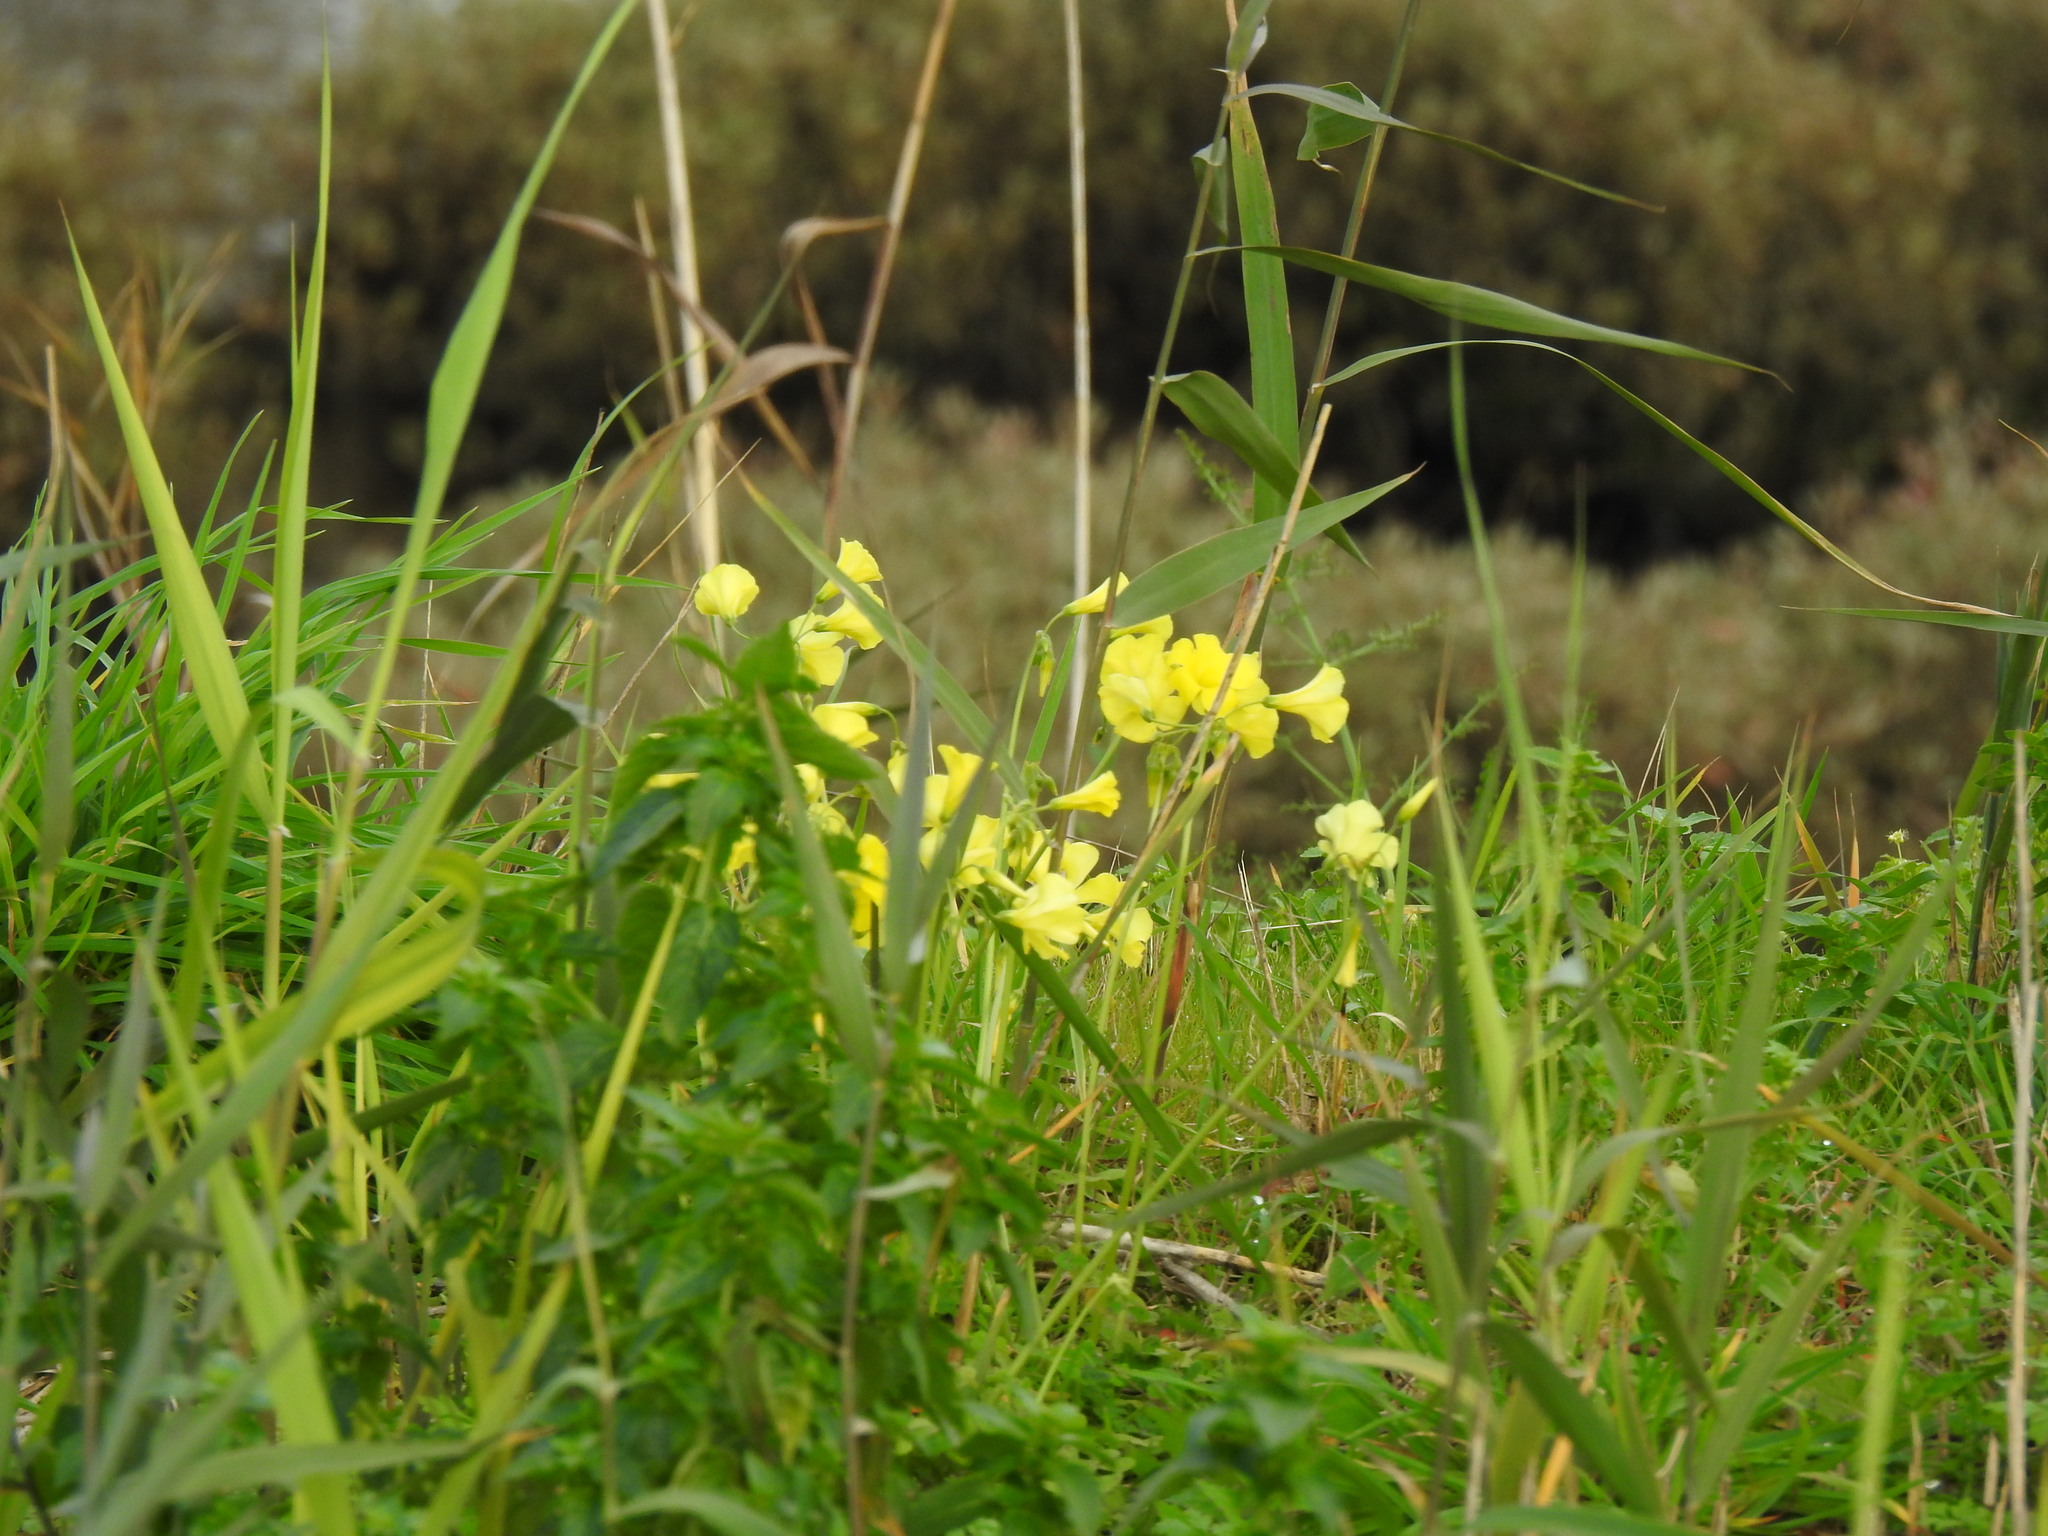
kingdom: Plantae
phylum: Tracheophyta
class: Magnoliopsida
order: Oxalidales
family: Oxalidaceae
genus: Oxalis
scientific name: Oxalis pes-caprae
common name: Bermuda-buttercup
